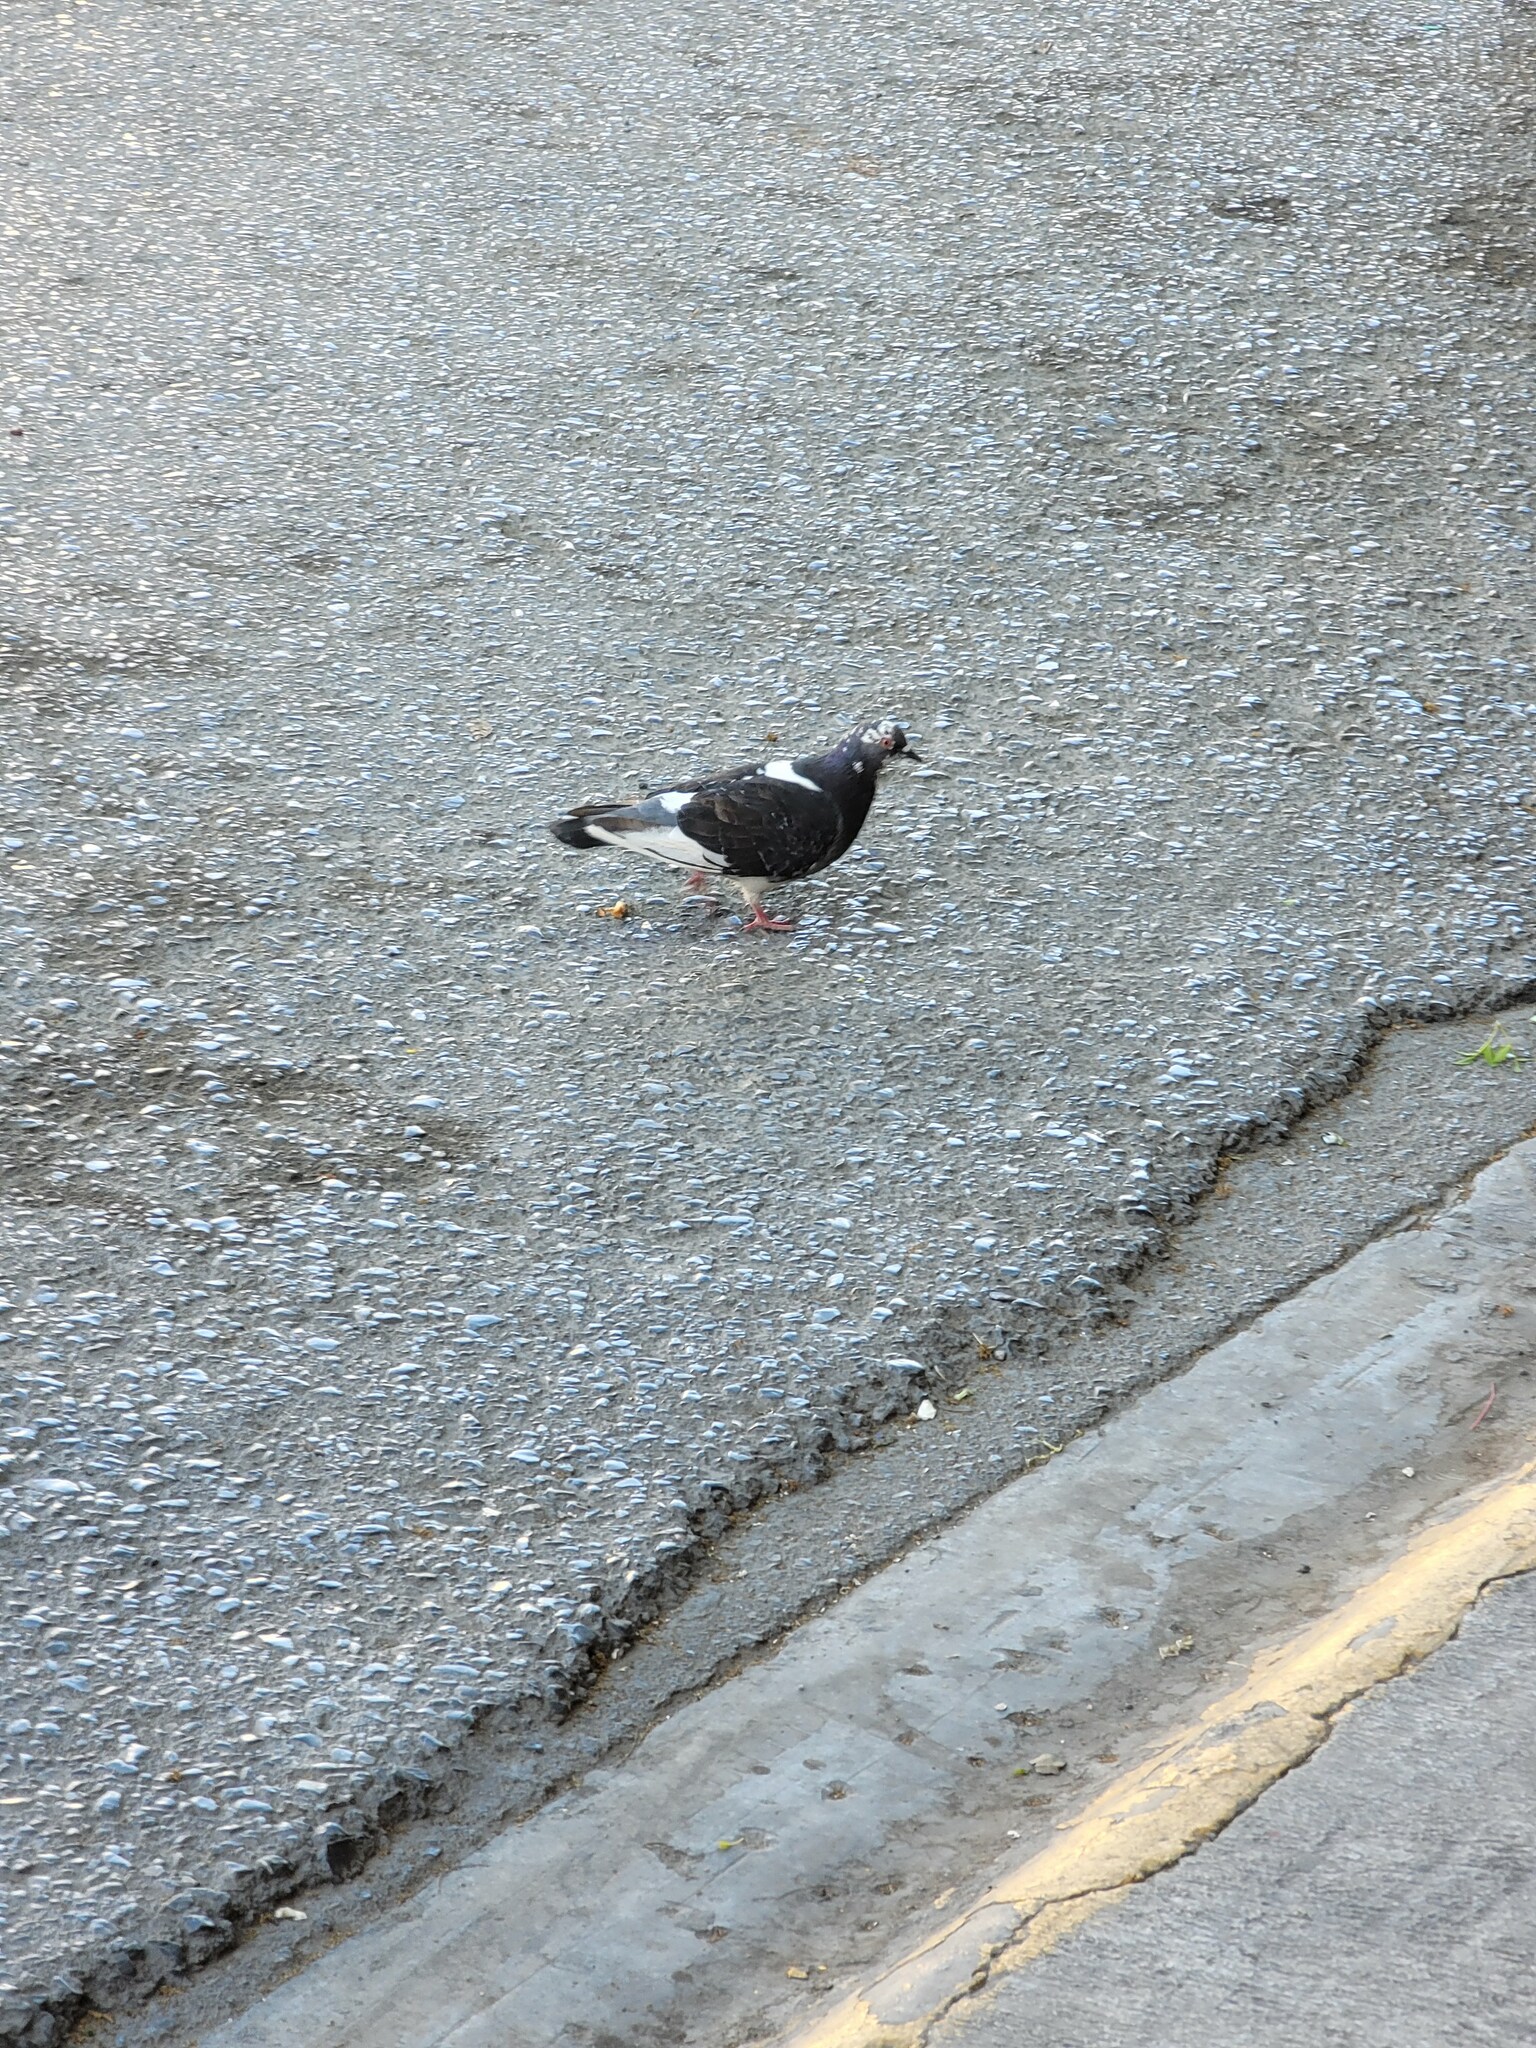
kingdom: Animalia
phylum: Chordata
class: Aves
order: Columbiformes
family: Columbidae
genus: Columba
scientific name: Columba livia
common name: Rock pigeon
